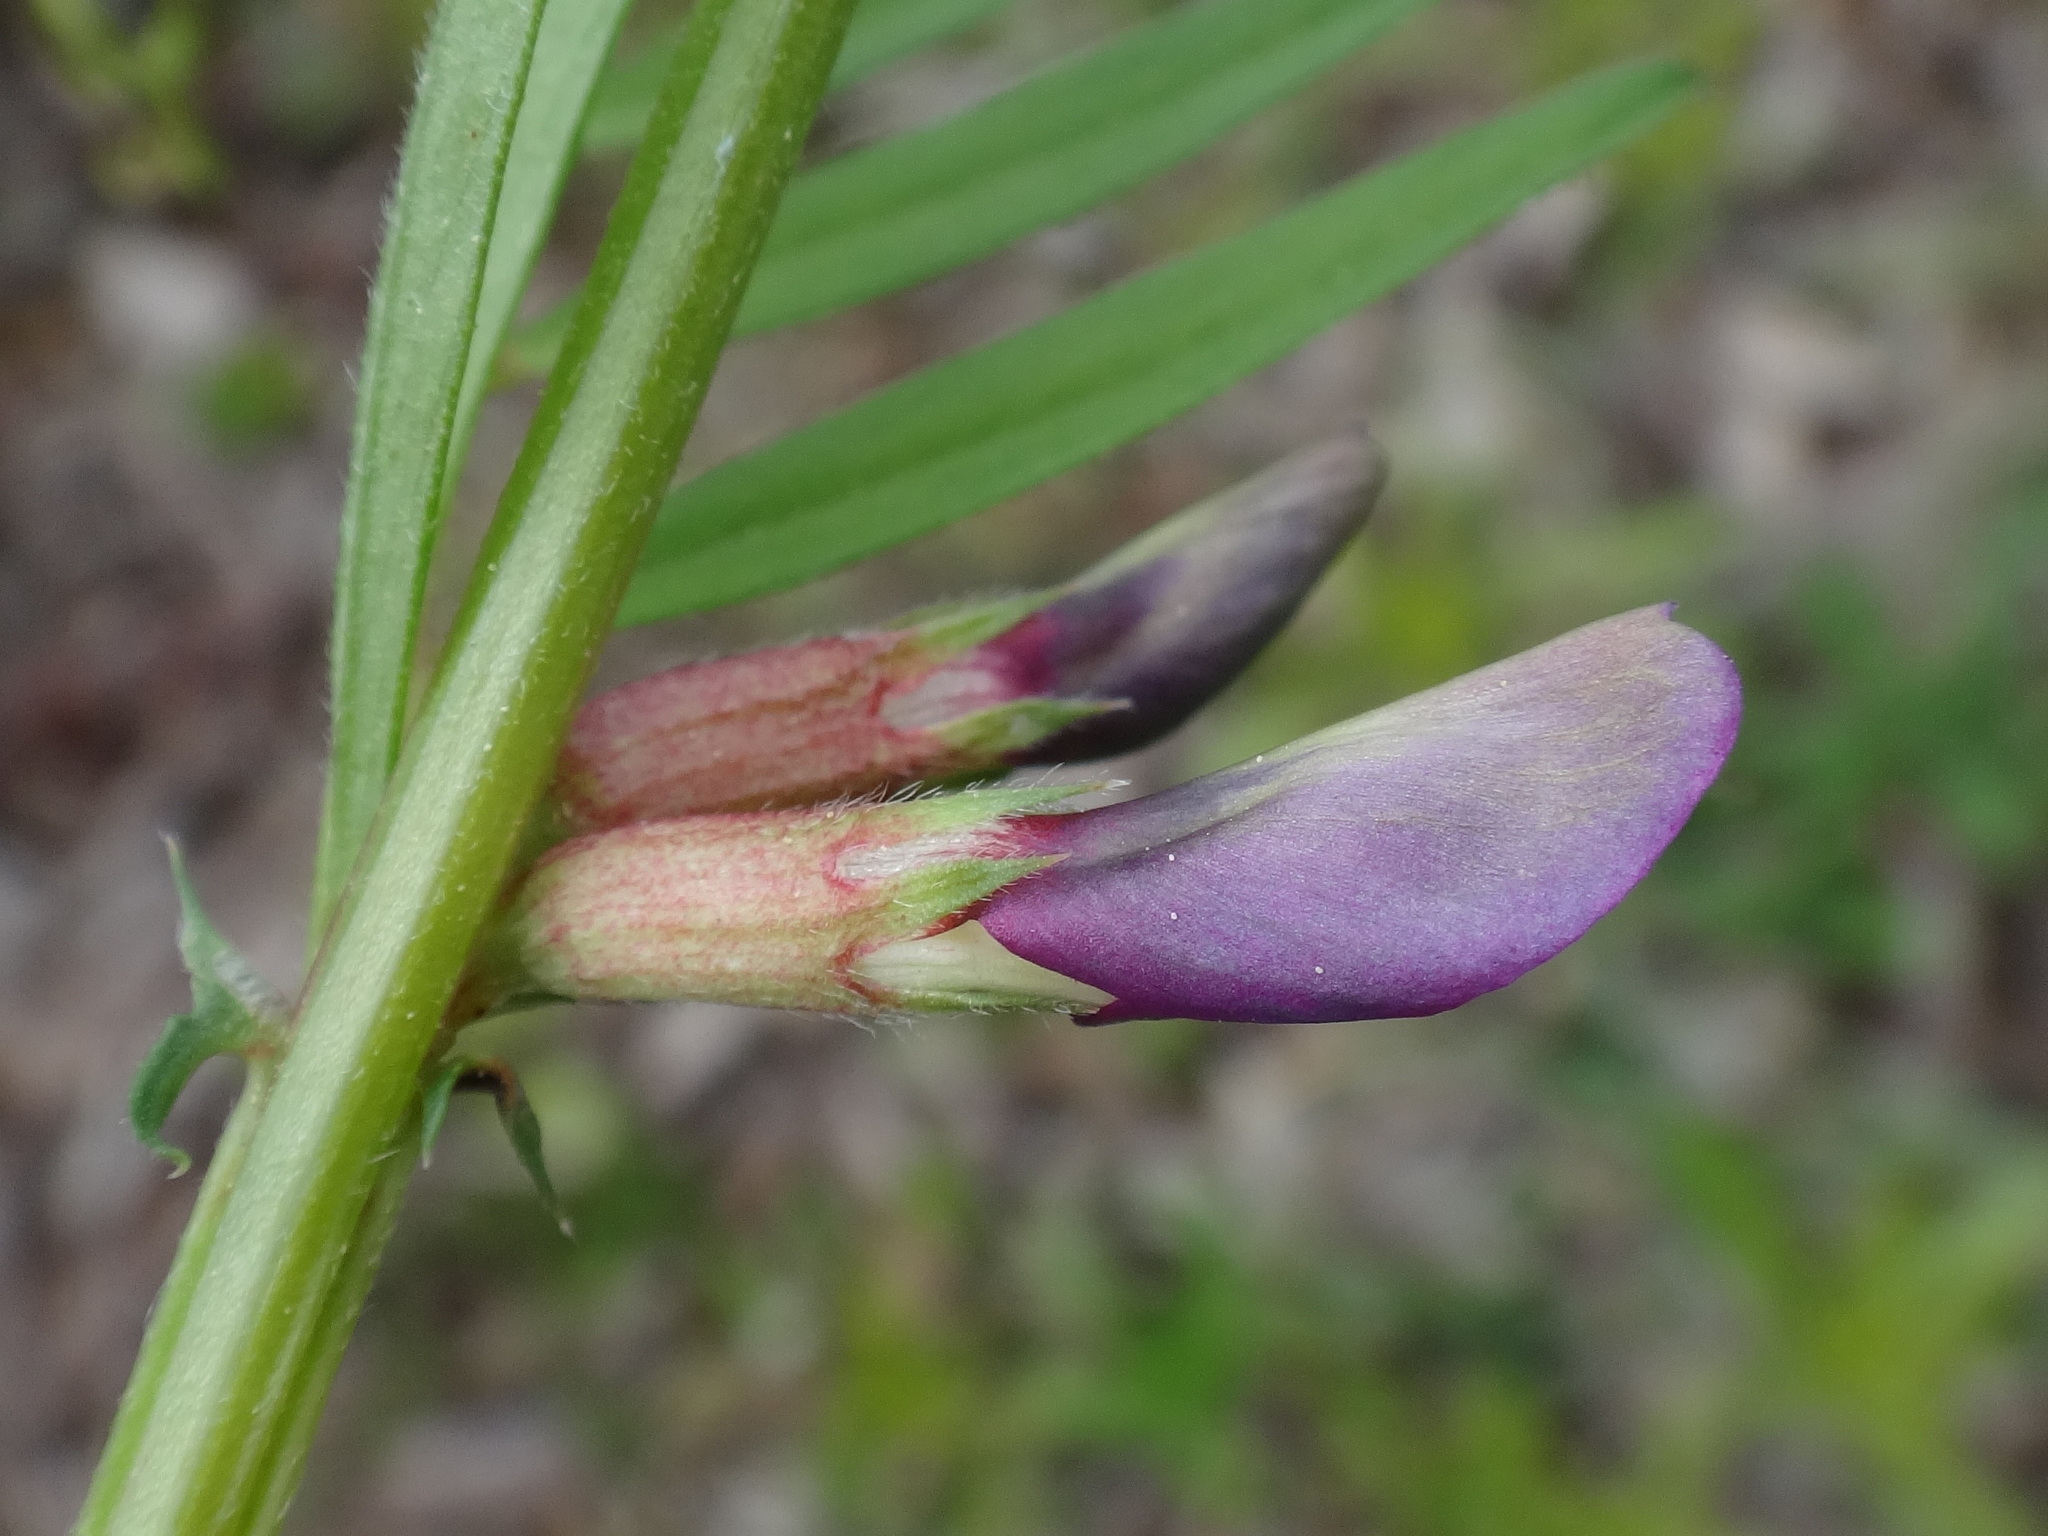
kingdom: Plantae
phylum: Tracheophyta
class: Magnoliopsida
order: Fabales
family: Fabaceae
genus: Vicia
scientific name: Vicia sativa
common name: Garden vetch
